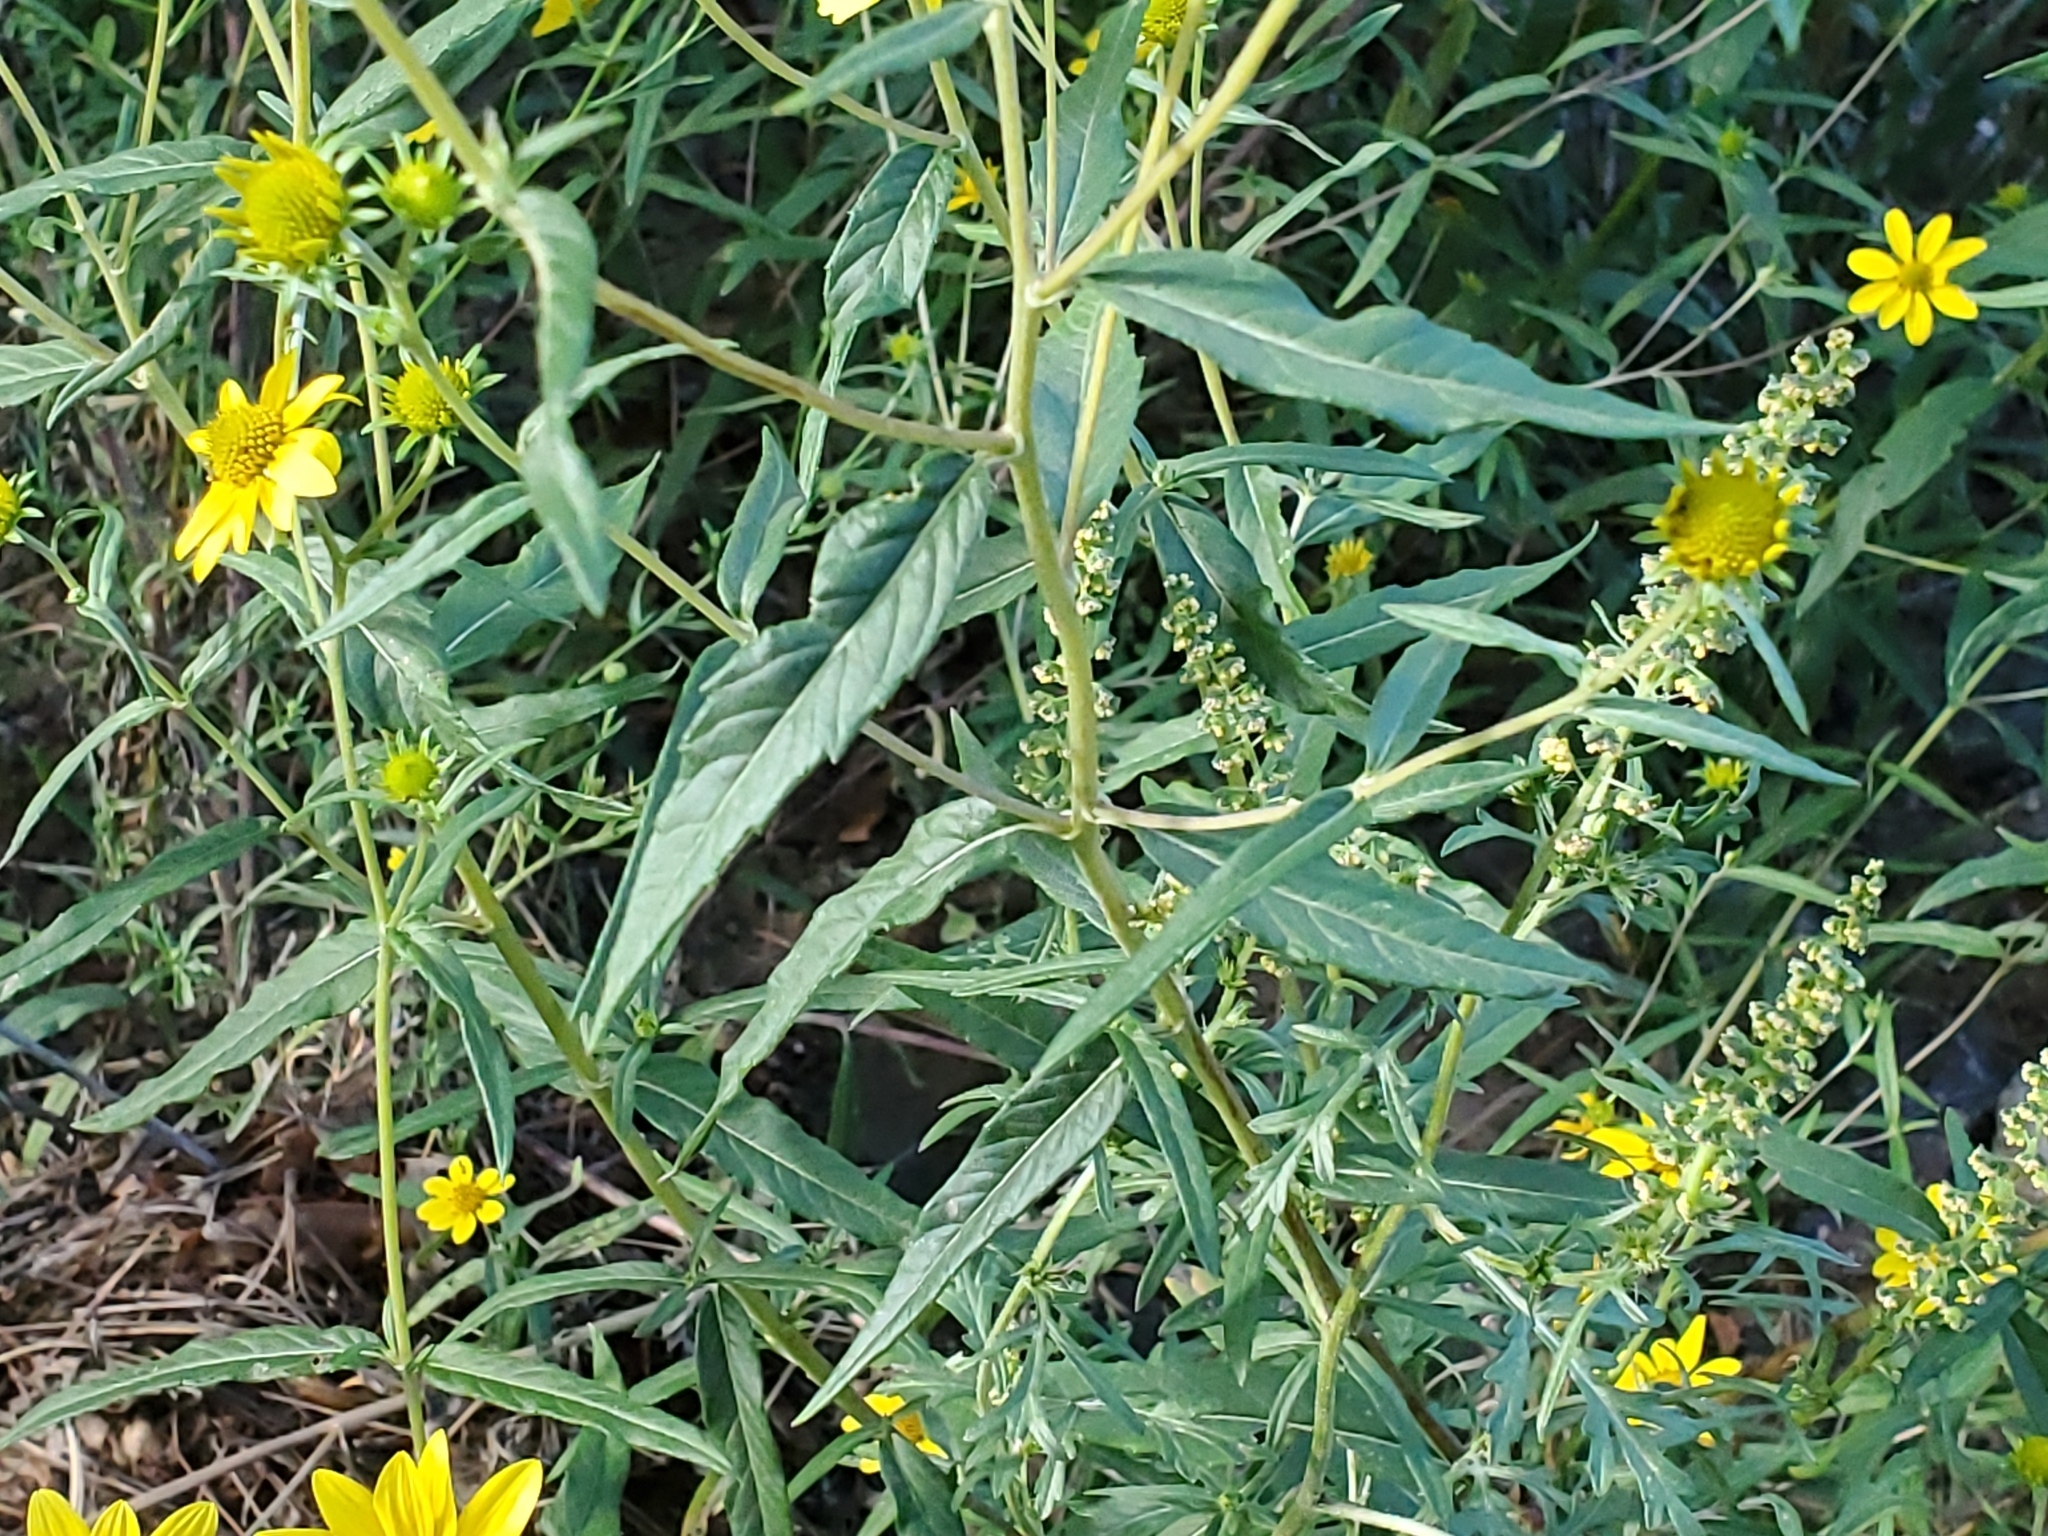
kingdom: Plantae
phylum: Tracheophyta
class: Magnoliopsida
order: Asterales
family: Asteraceae
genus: Heliomeris
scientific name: Heliomeris multiflora
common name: Showy goldeneye
